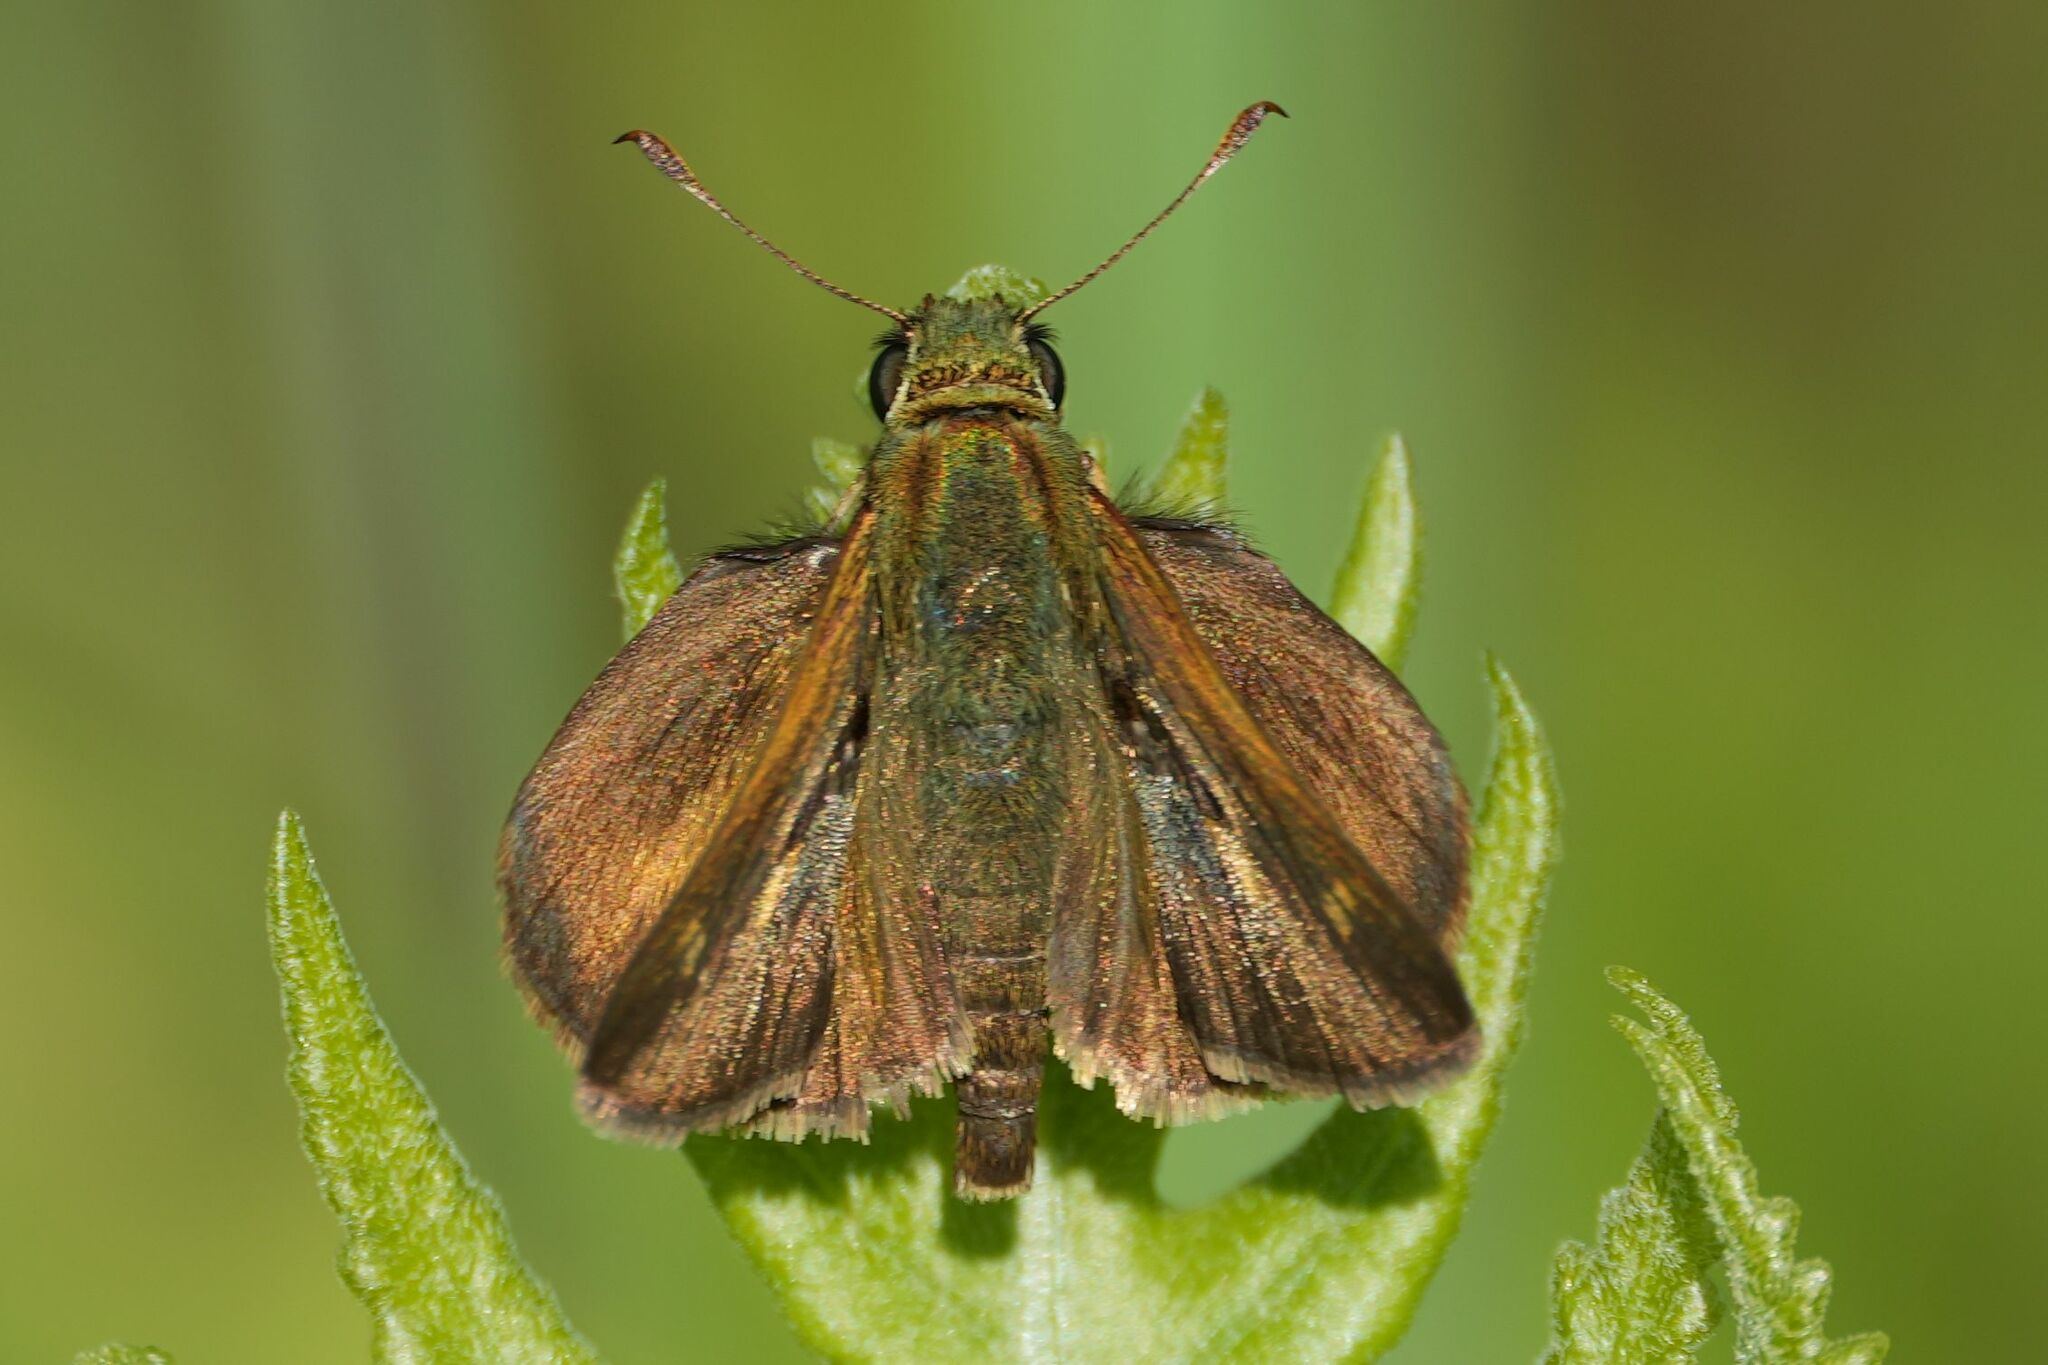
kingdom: Animalia
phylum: Arthropoda
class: Insecta
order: Lepidoptera
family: Hesperiidae
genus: Polites
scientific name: Polites egeremet
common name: Northern broken-dash
